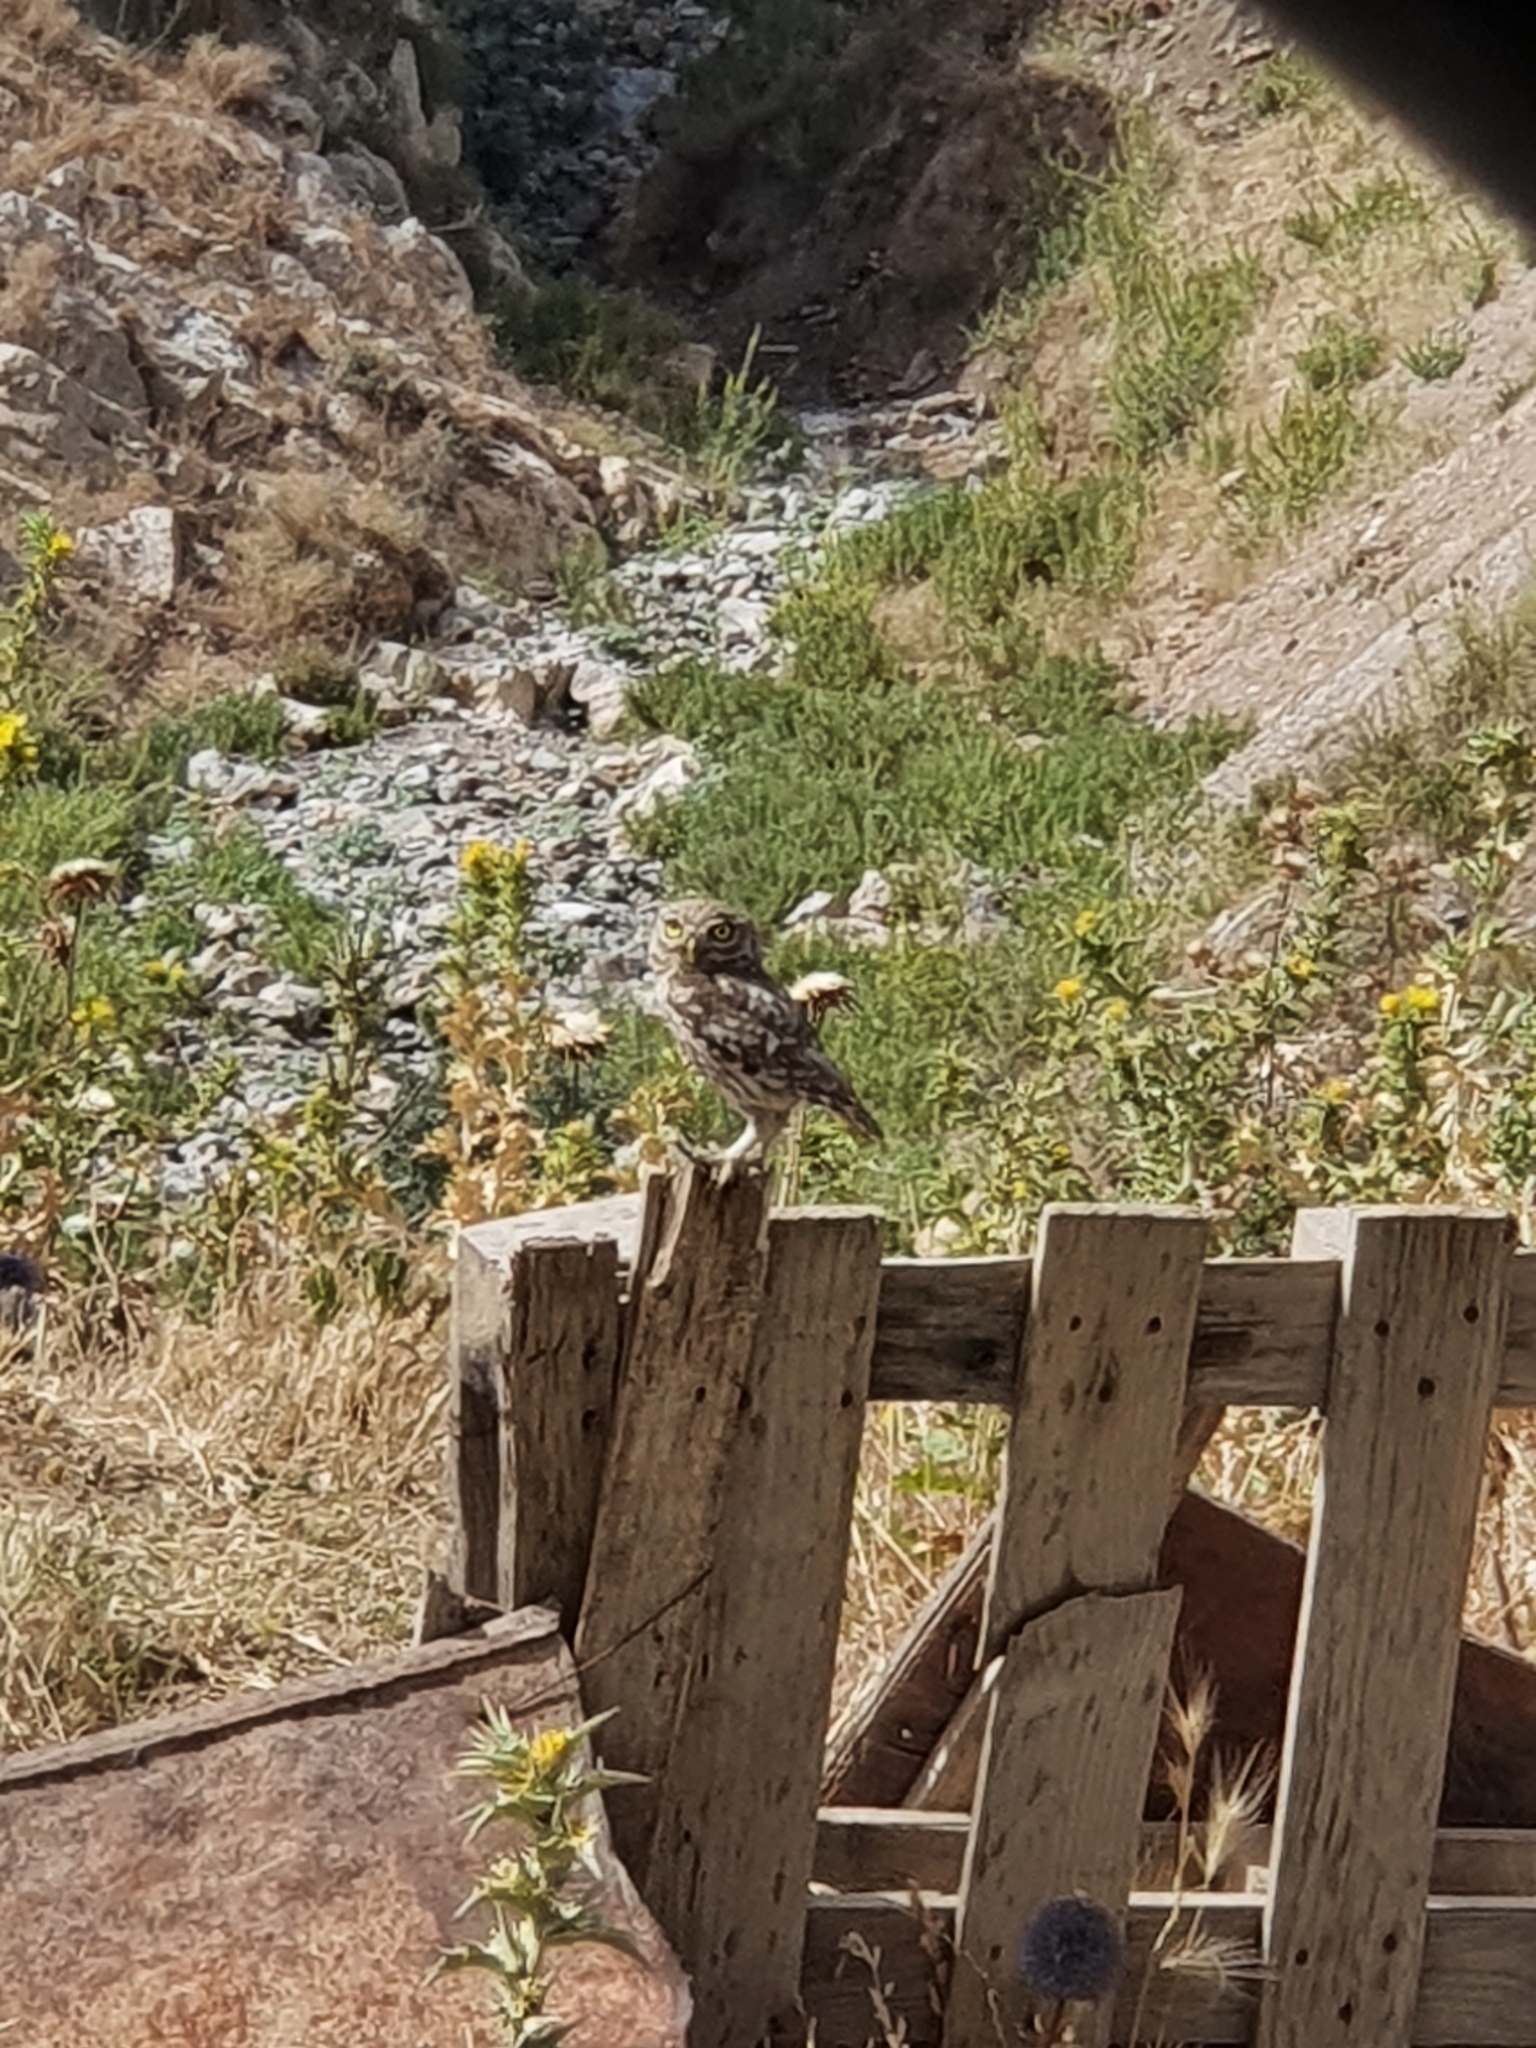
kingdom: Animalia
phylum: Chordata
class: Aves
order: Strigiformes
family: Strigidae
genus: Athene
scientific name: Athene noctua
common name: Little owl
